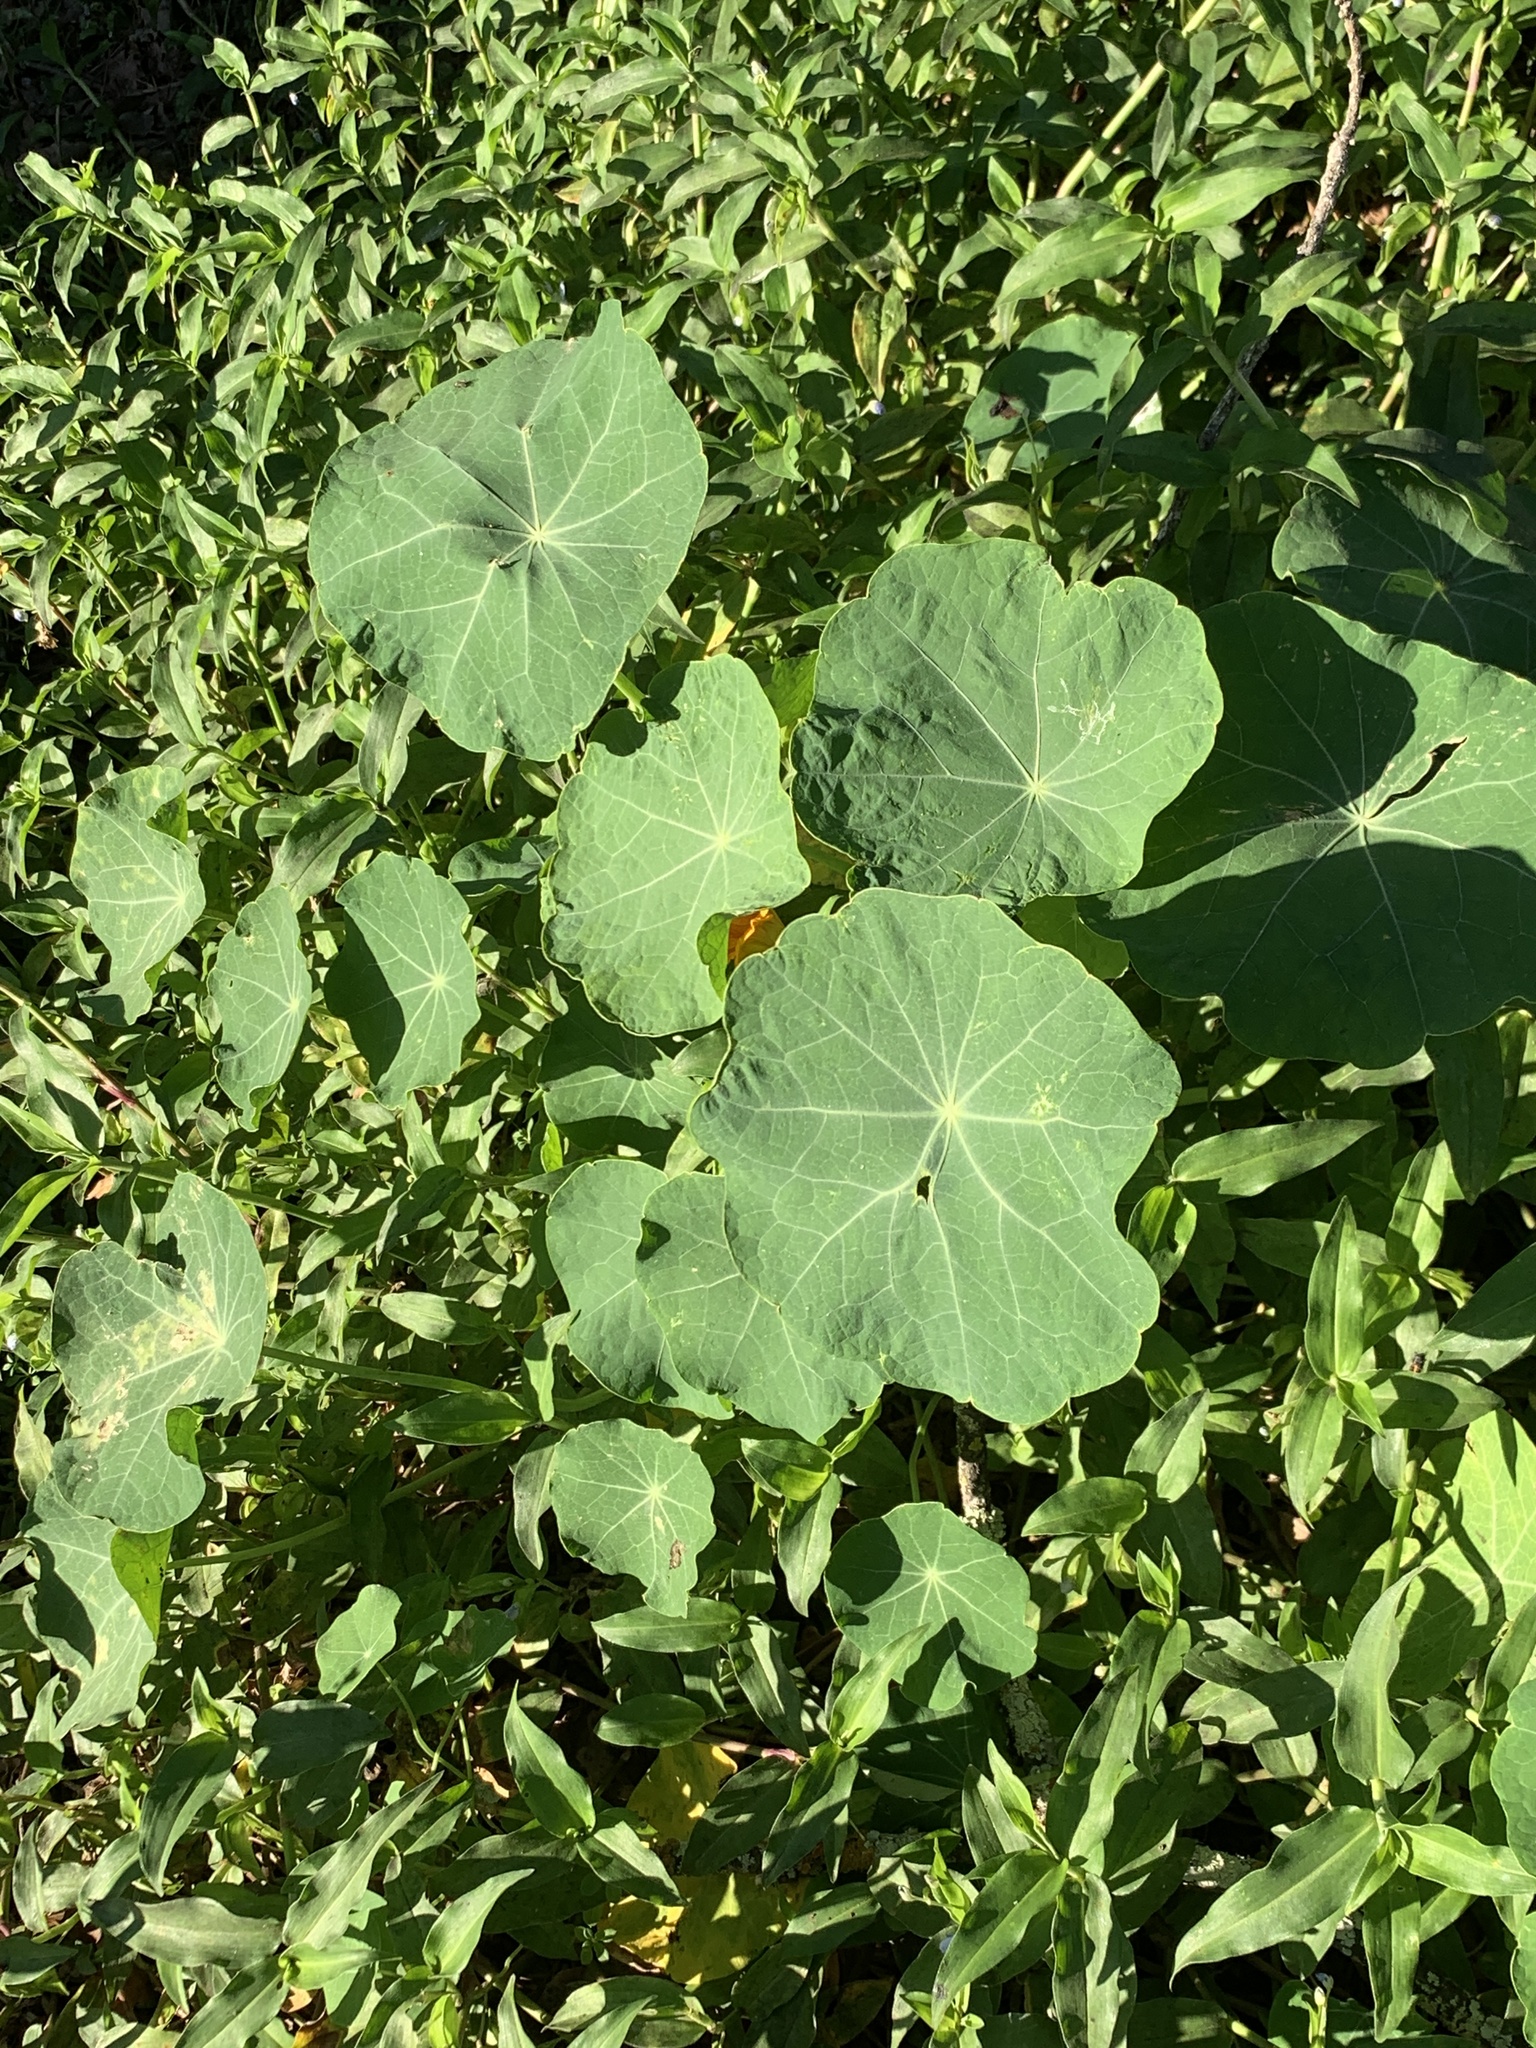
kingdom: Plantae
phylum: Tracheophyta
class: Magnoliopsida
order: Brassicales
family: Tropaeolaceae
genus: Tropaeolum
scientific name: Tropaeolum majus
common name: Nasturtium
